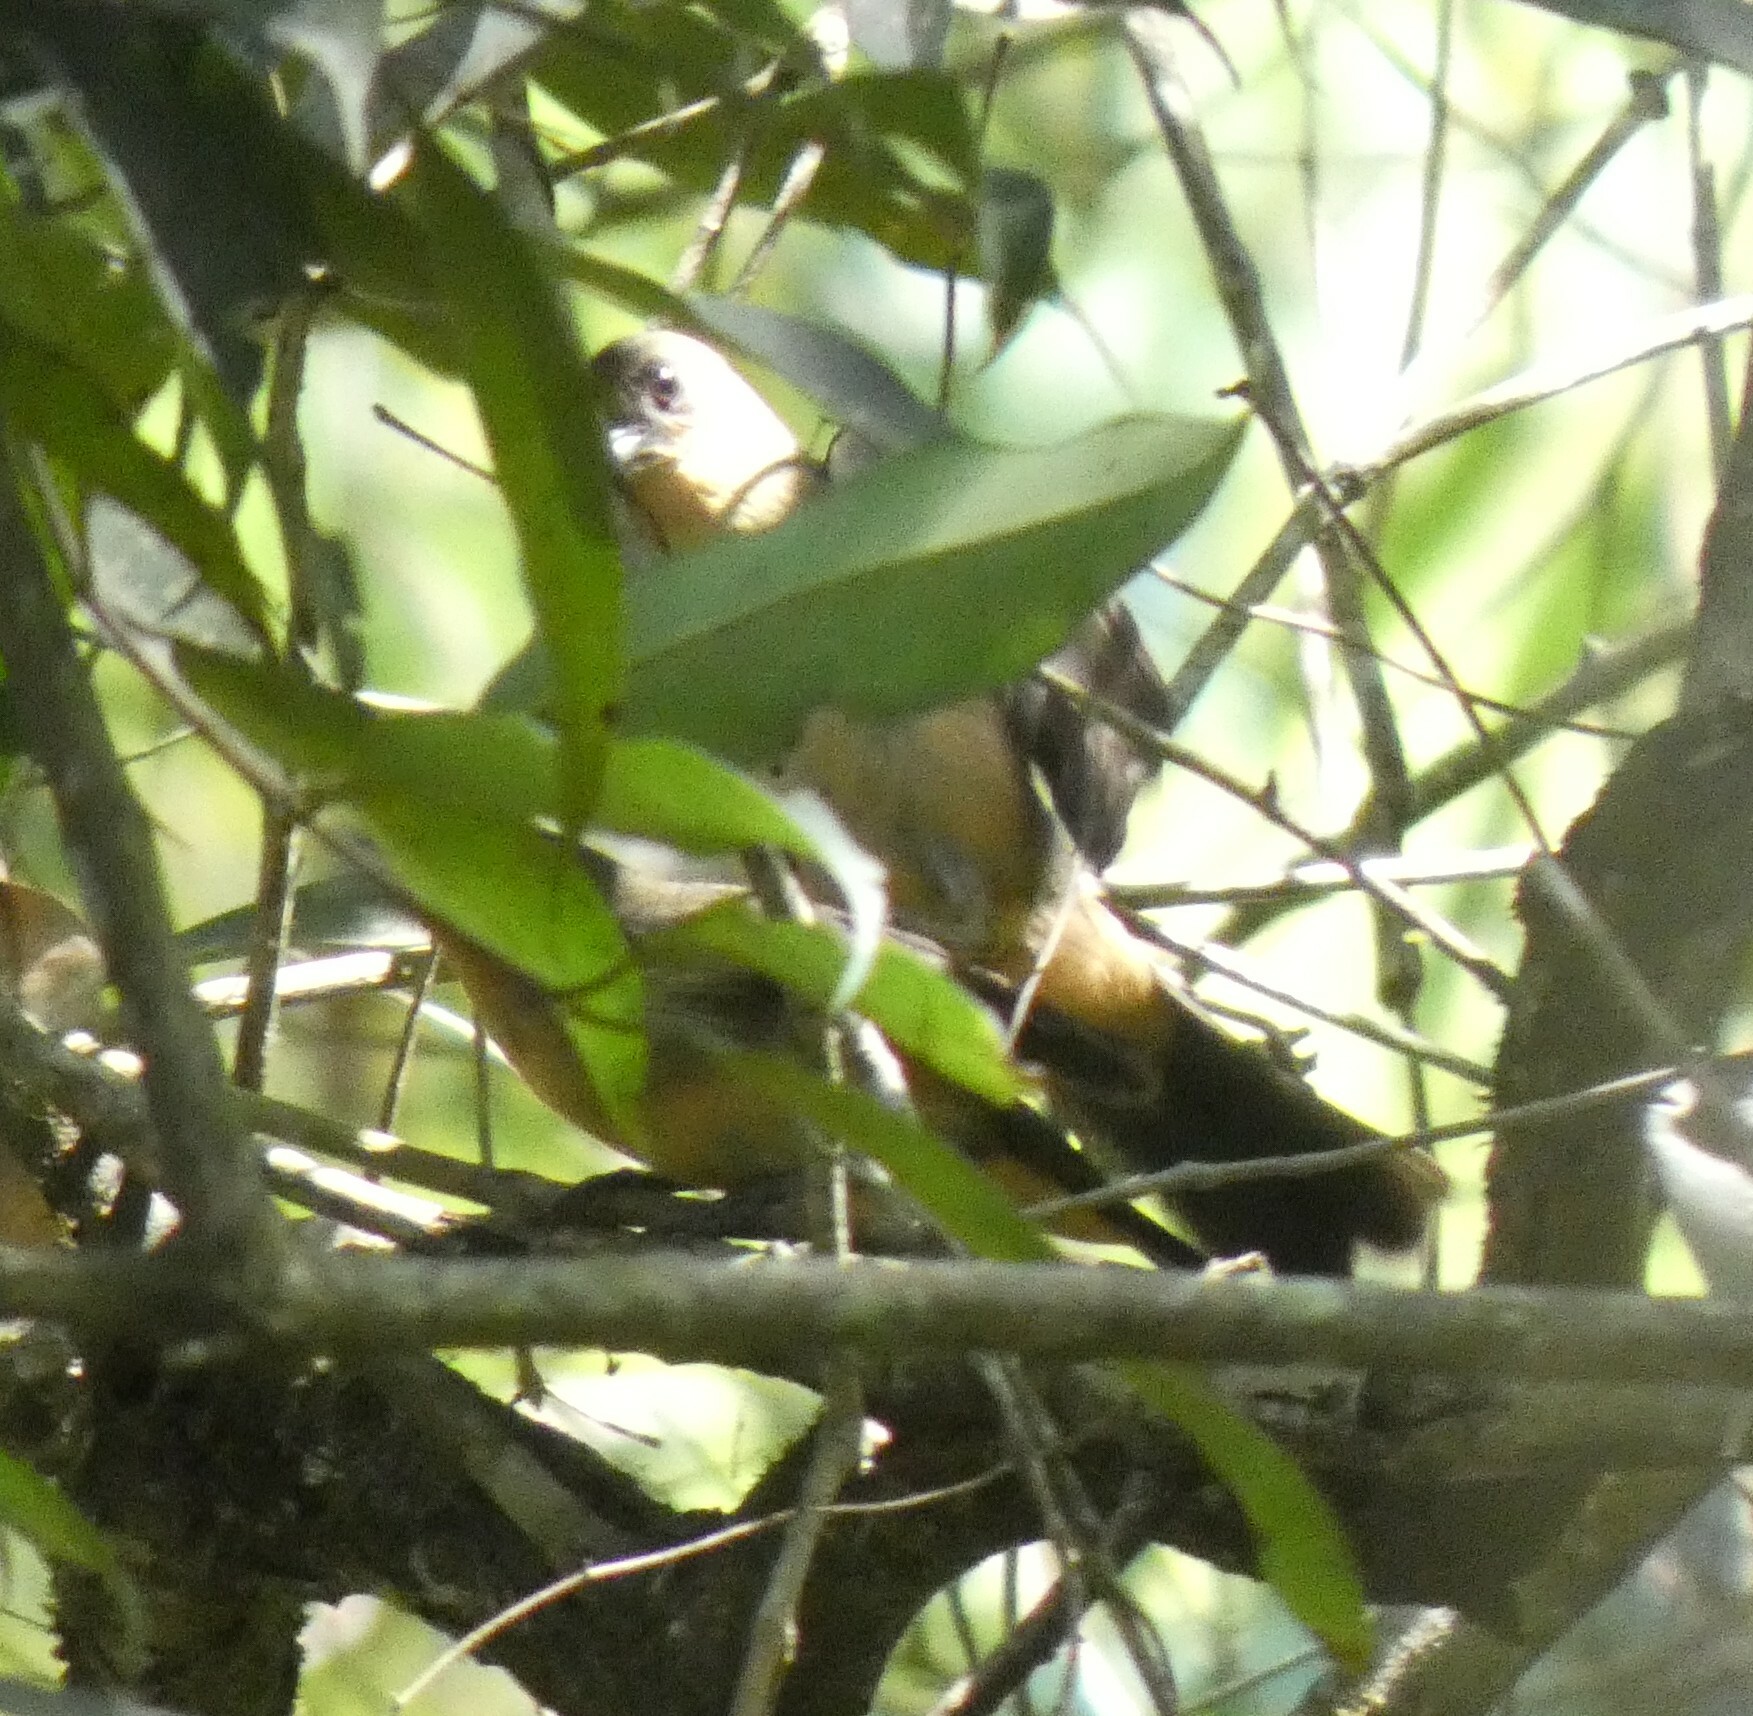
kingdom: Animalia
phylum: Chordata
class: Aves
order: Passeriformes
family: Thraupidae
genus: Trichothraupis
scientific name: Trichothraupis melanops
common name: Black-goggled tanager
